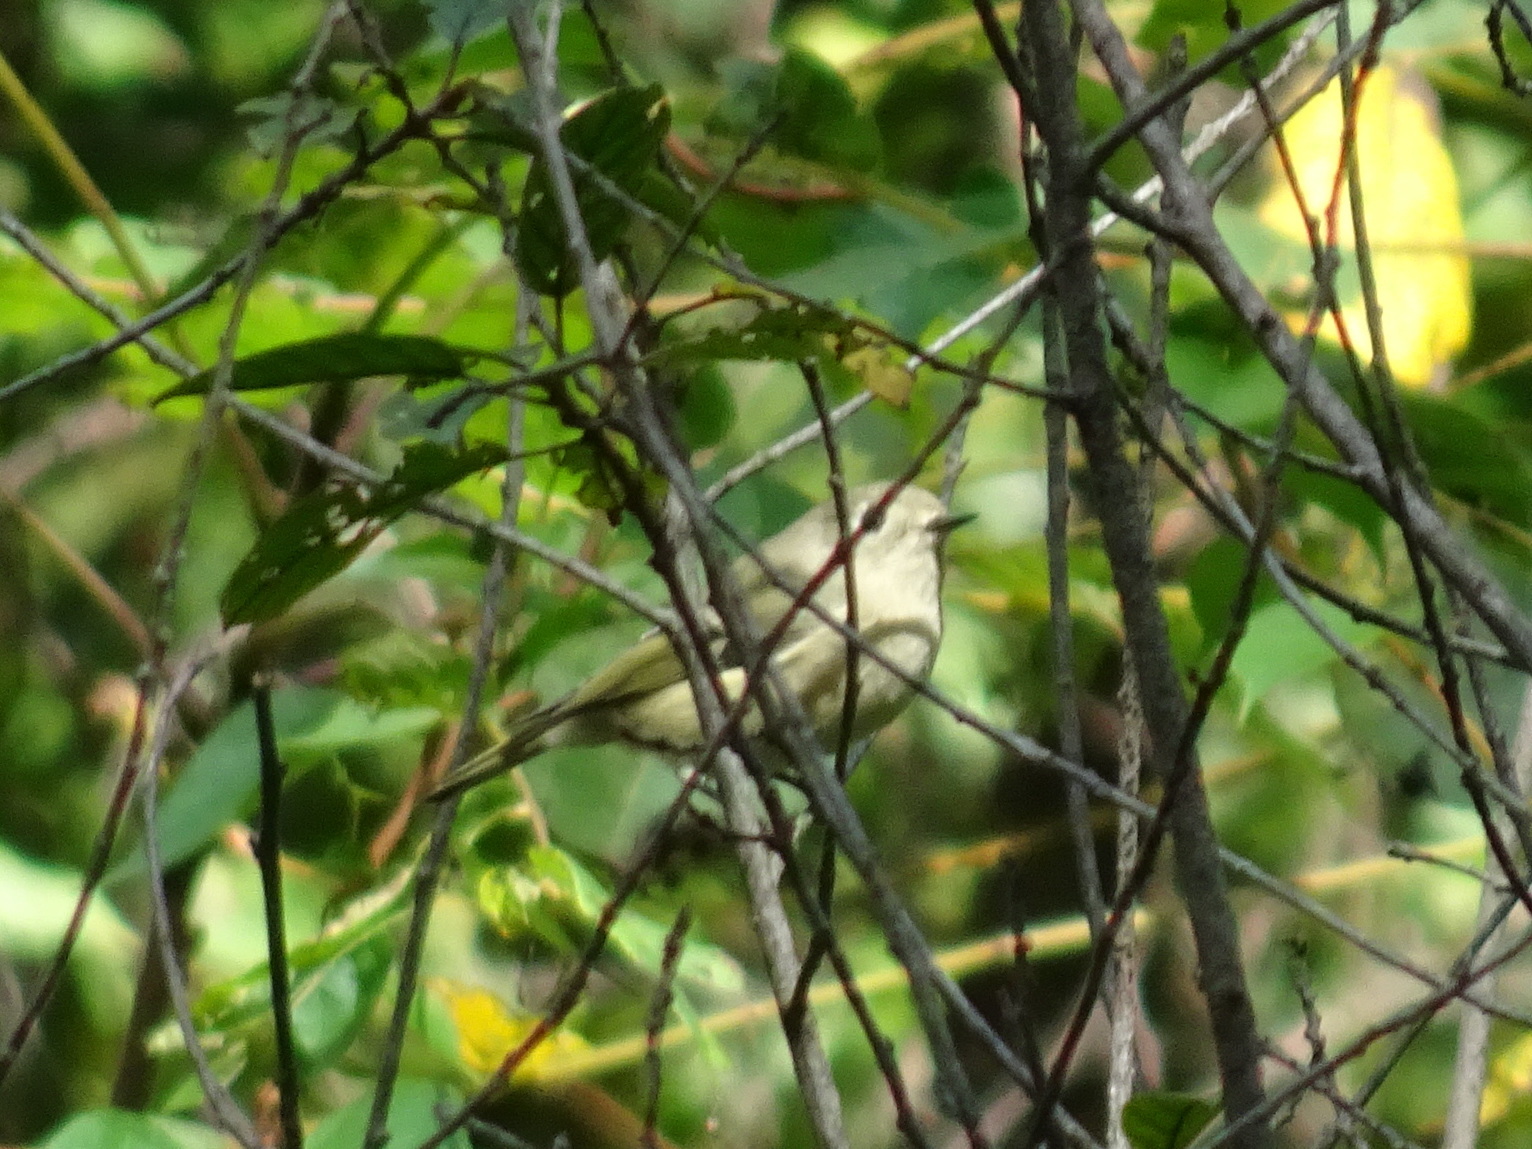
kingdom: Animalia
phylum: Chordata
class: Aves
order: Passeriformes
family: Regulidae
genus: Regulus
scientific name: Regulus calendula
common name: Ruby-crowned kinglet
